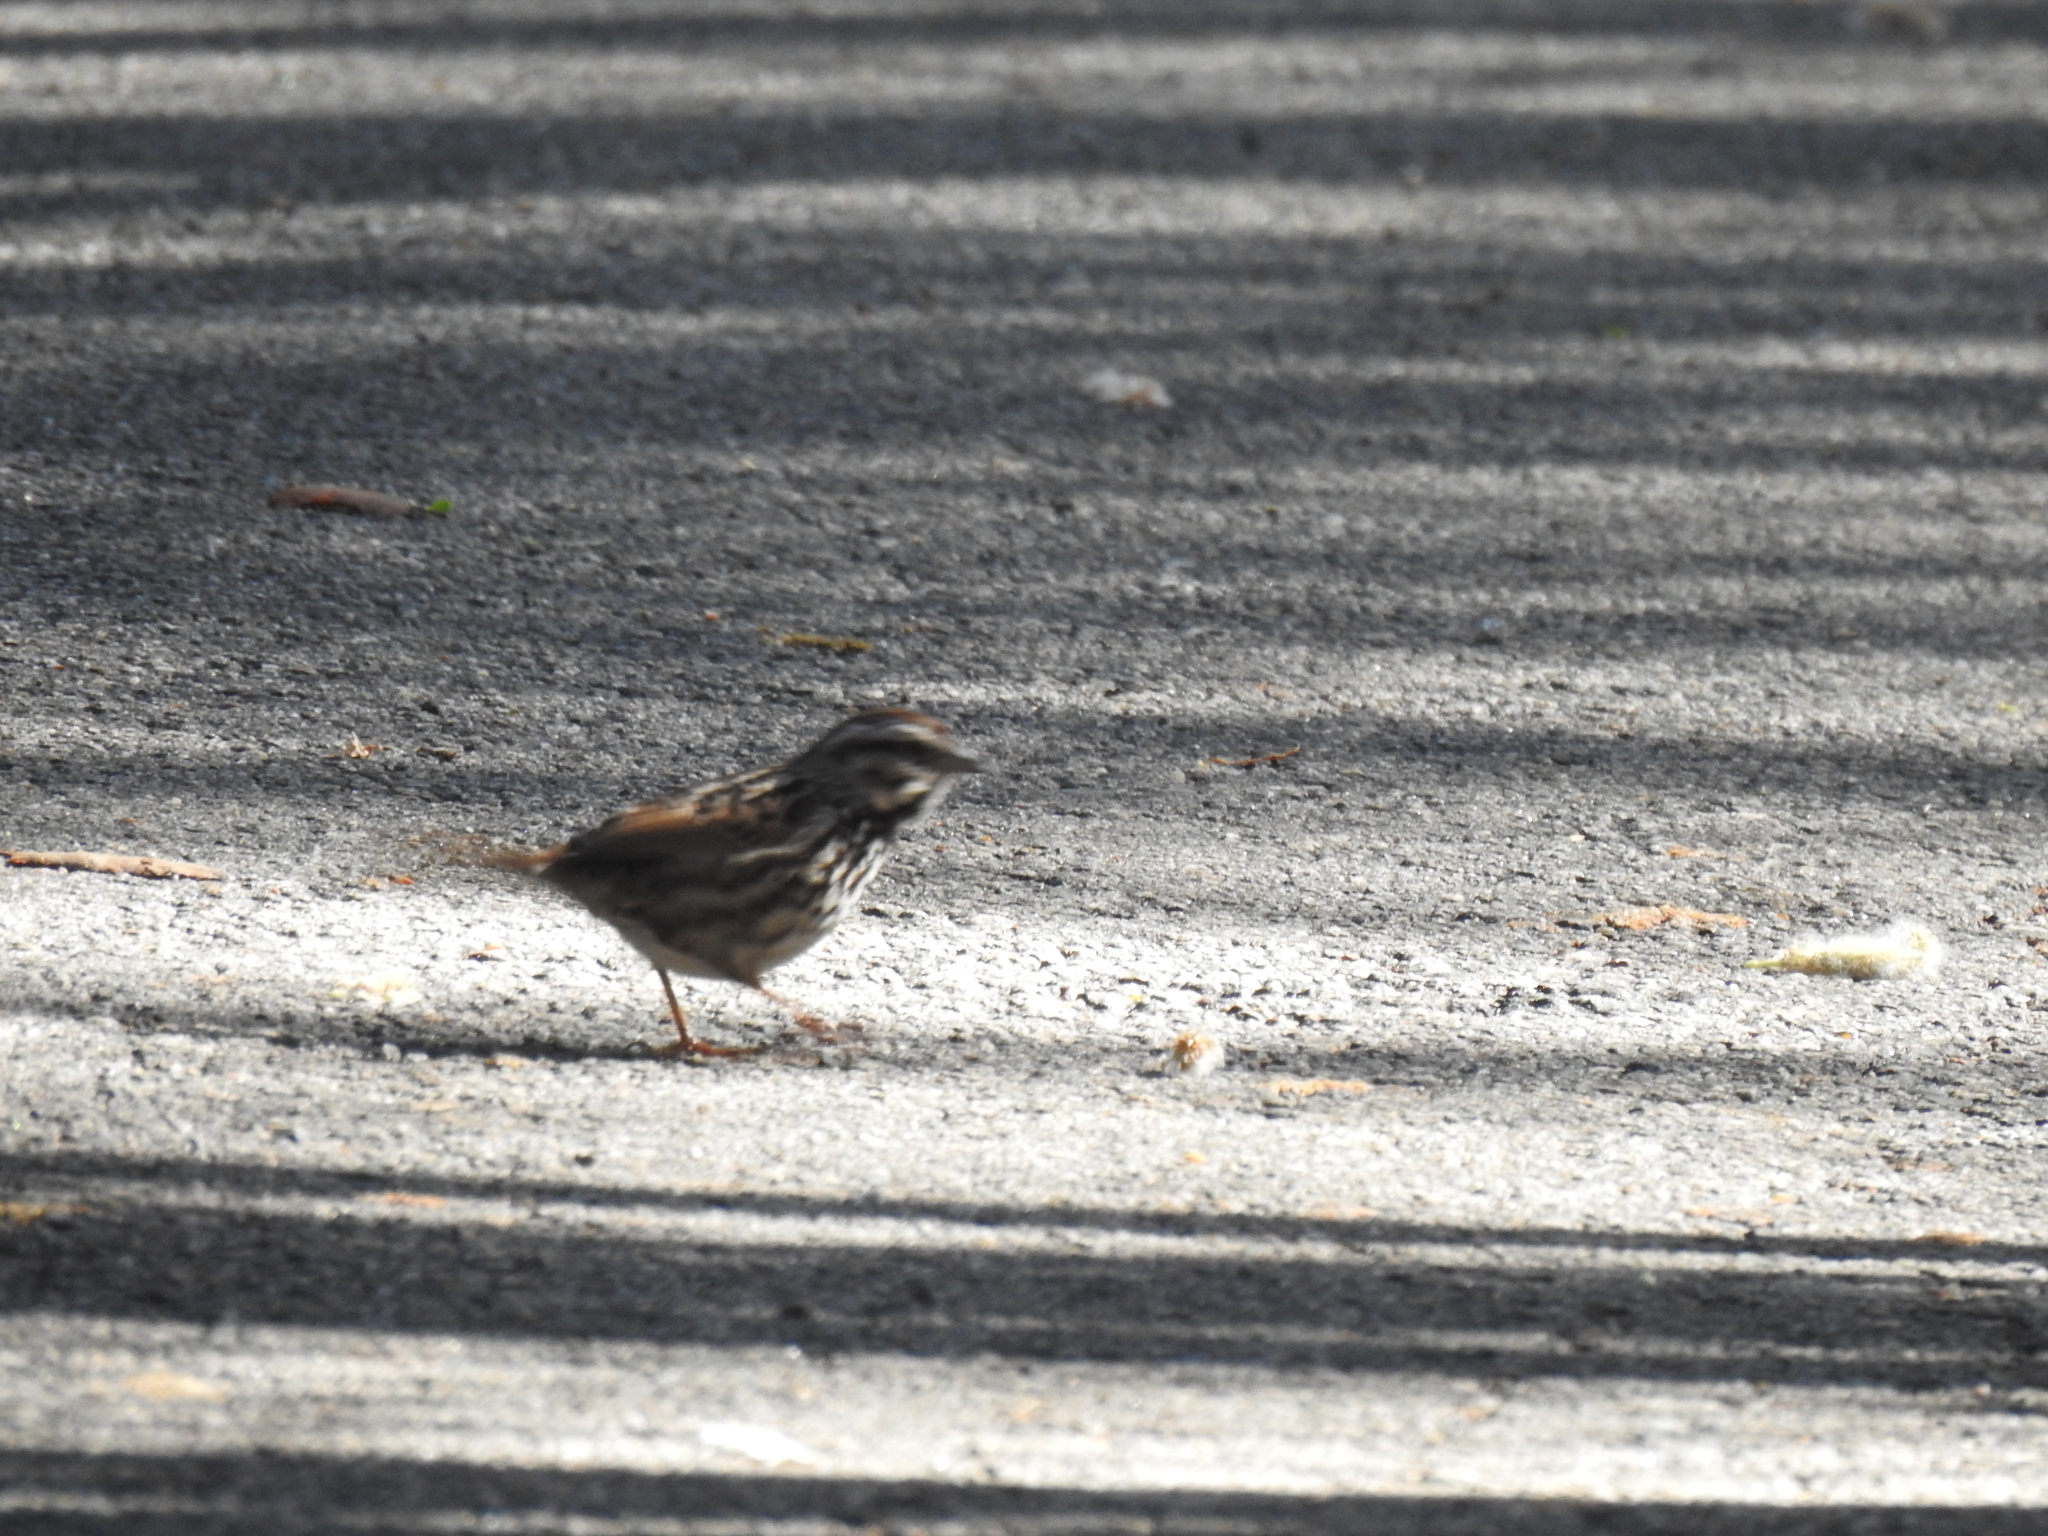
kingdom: Animalia
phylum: Chordata
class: Aves
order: Passeriformes
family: Passerellidae
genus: Melospiza
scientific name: Melospiza melodia
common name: Song sparrow
